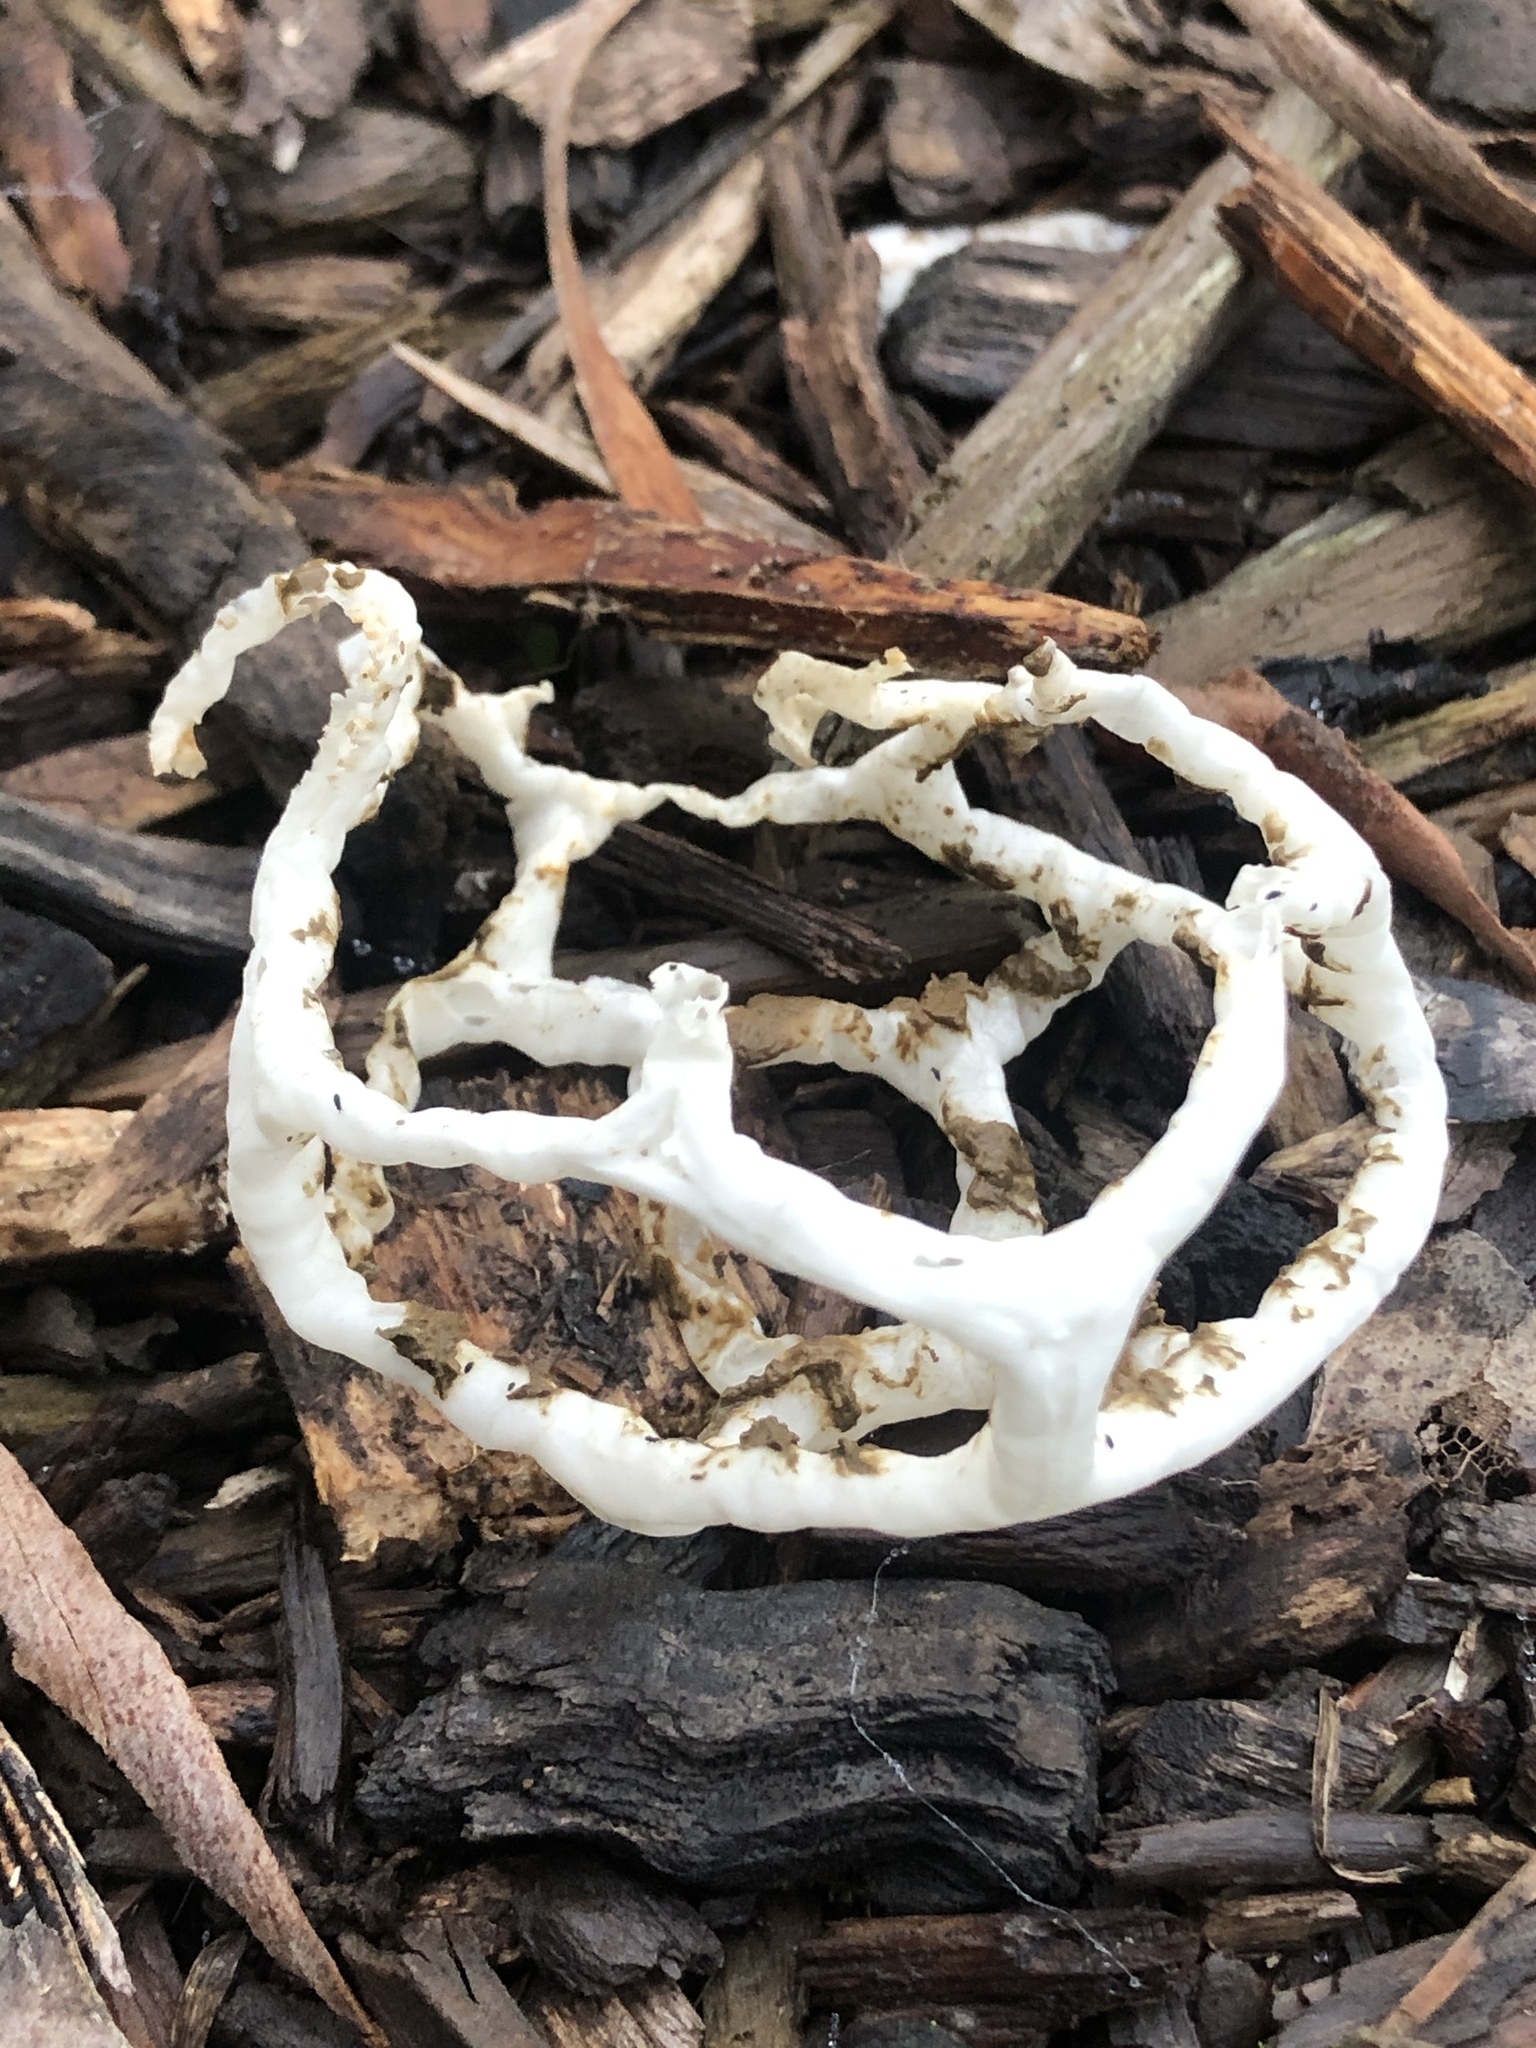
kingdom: Fungi
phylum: Basidiomycota
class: Agaricomycetes
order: Phallales
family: Phallaceae
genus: Ileodictyon
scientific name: Ileodictyon cibarium
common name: Basket fungus
